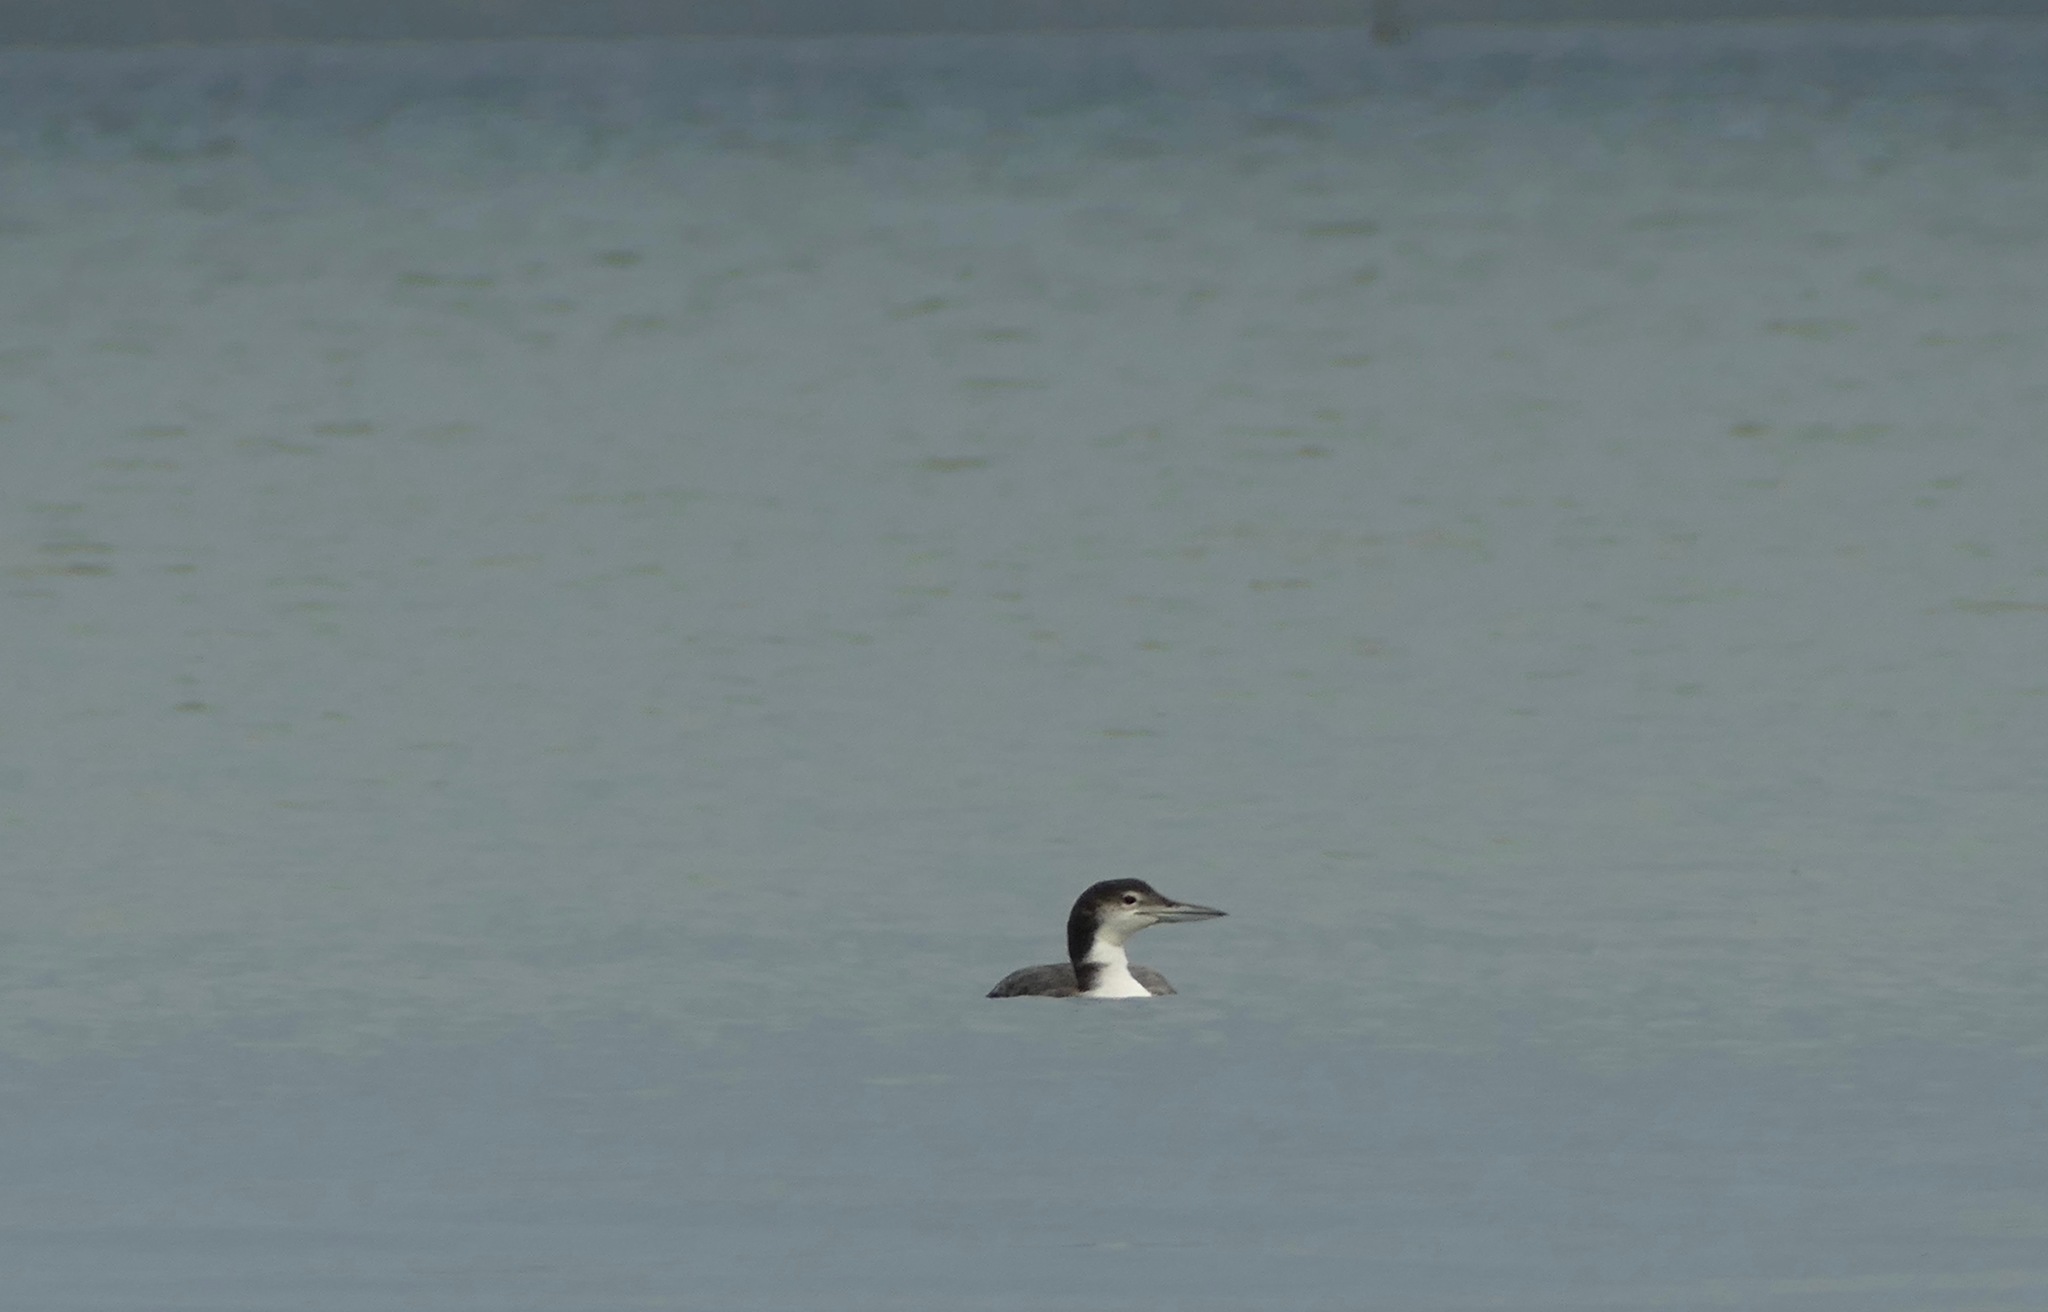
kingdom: Animalia
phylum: Chordata
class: Aves
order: Gaviiformes
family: Gaviidae
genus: Gavia
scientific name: Gavia immer
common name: Common loon
